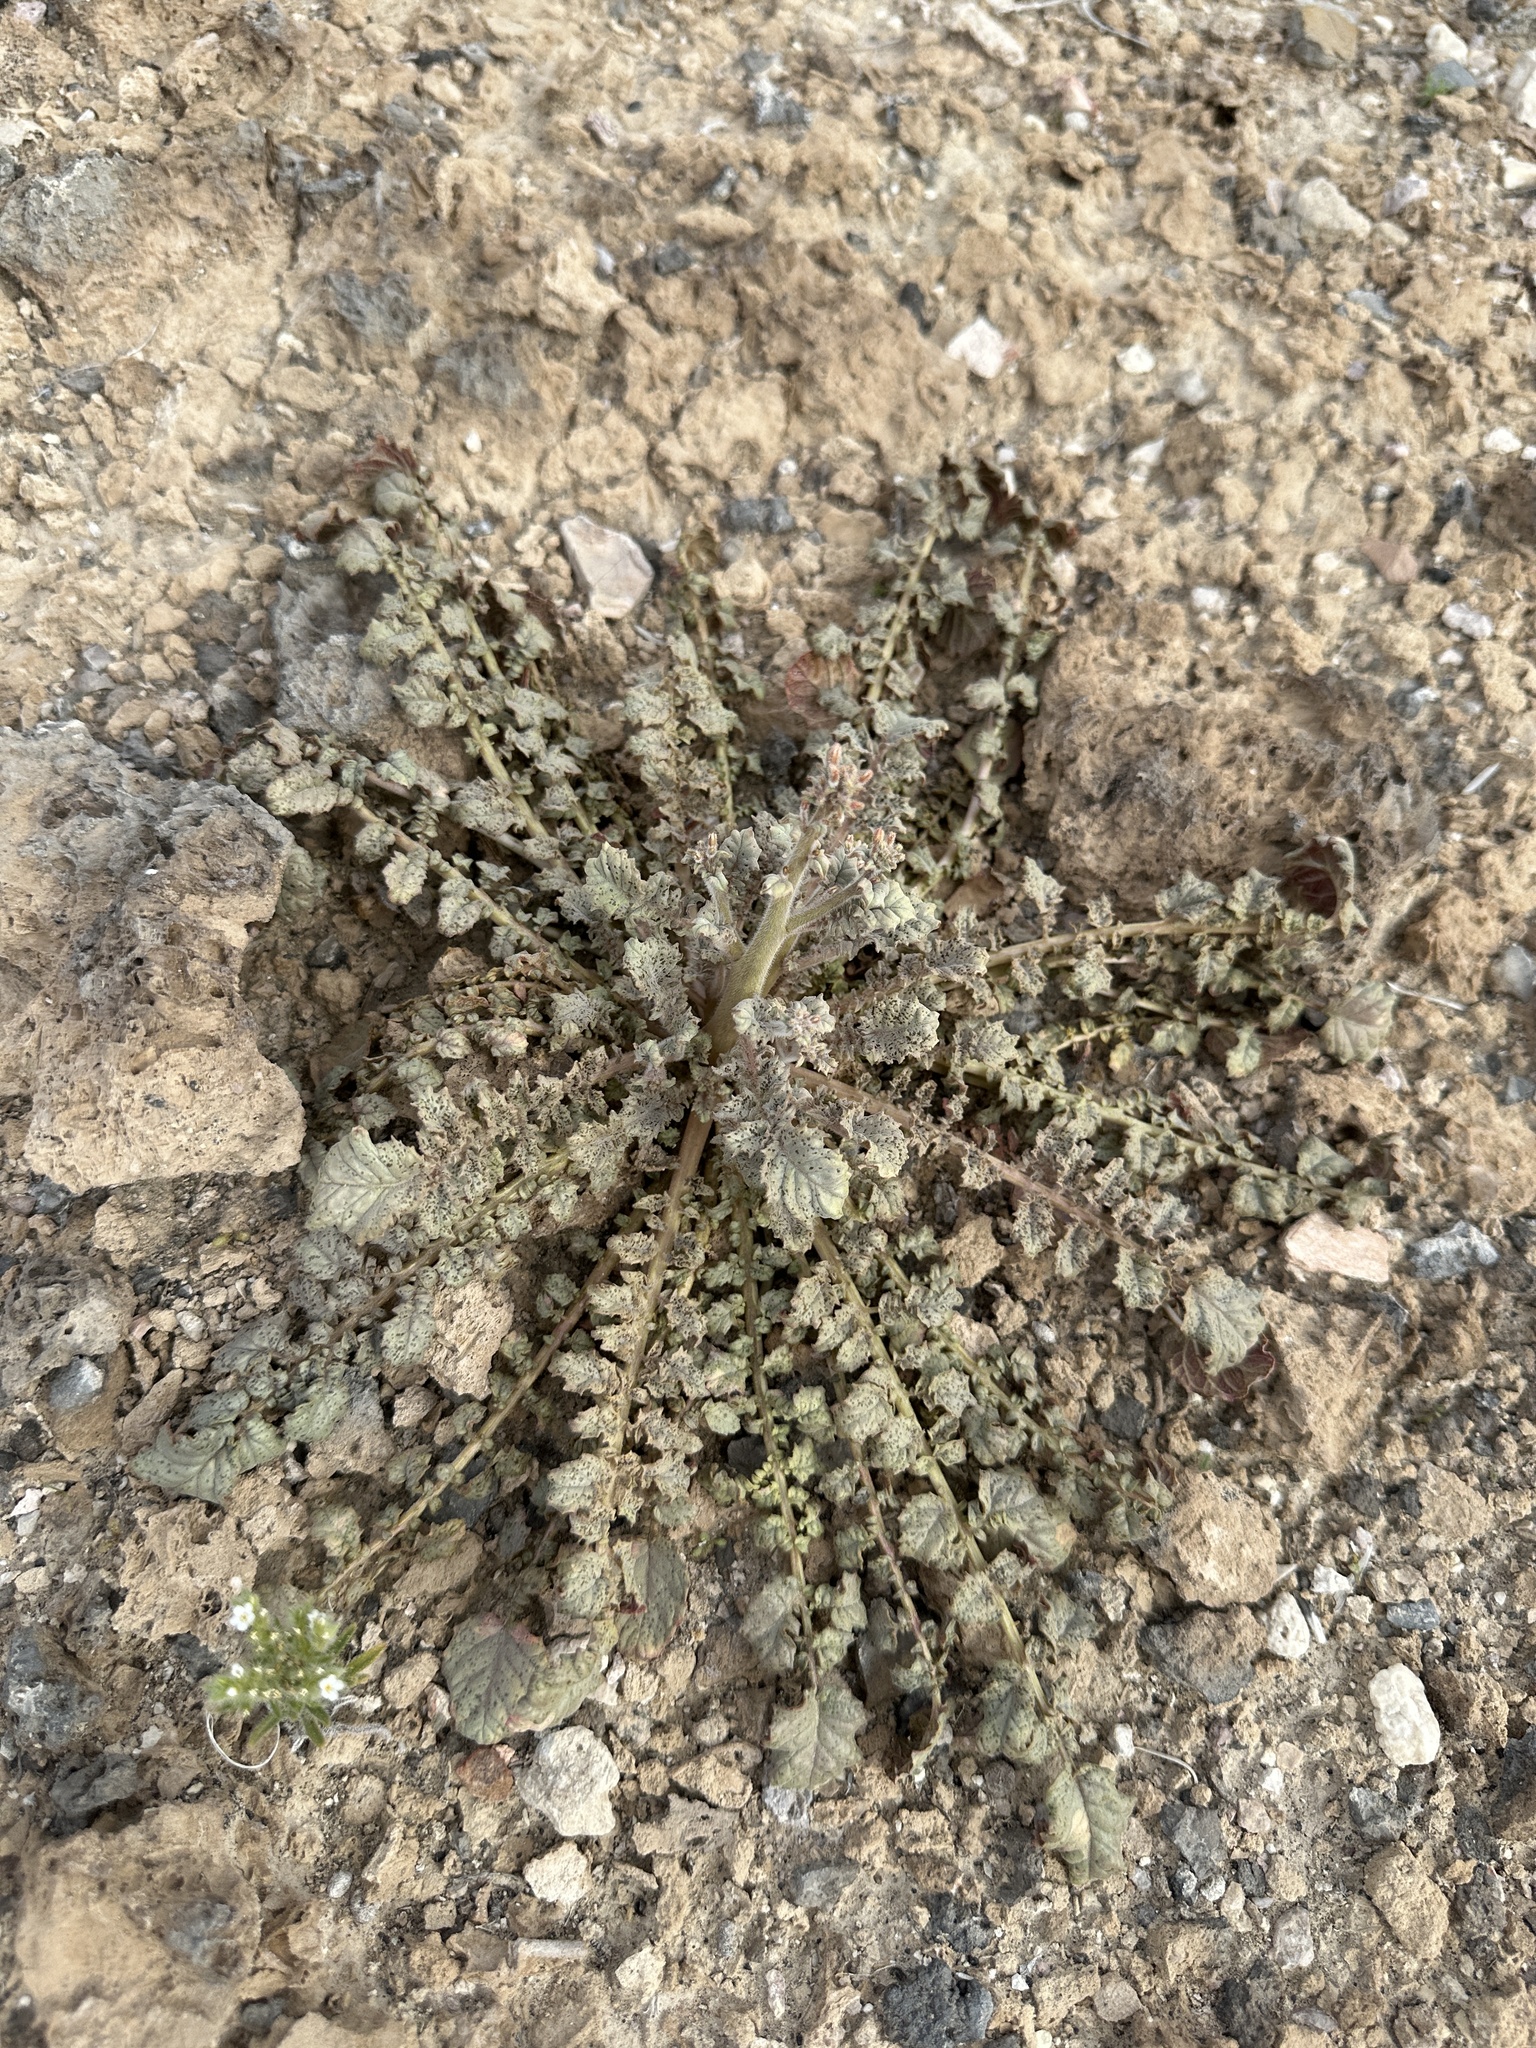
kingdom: Plantae
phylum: Tracheophyta
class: Magnoliopsida
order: Myrtales
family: Onagraceae
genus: Chylismia
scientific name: Chylismia walkeri
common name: Walker's suncup
